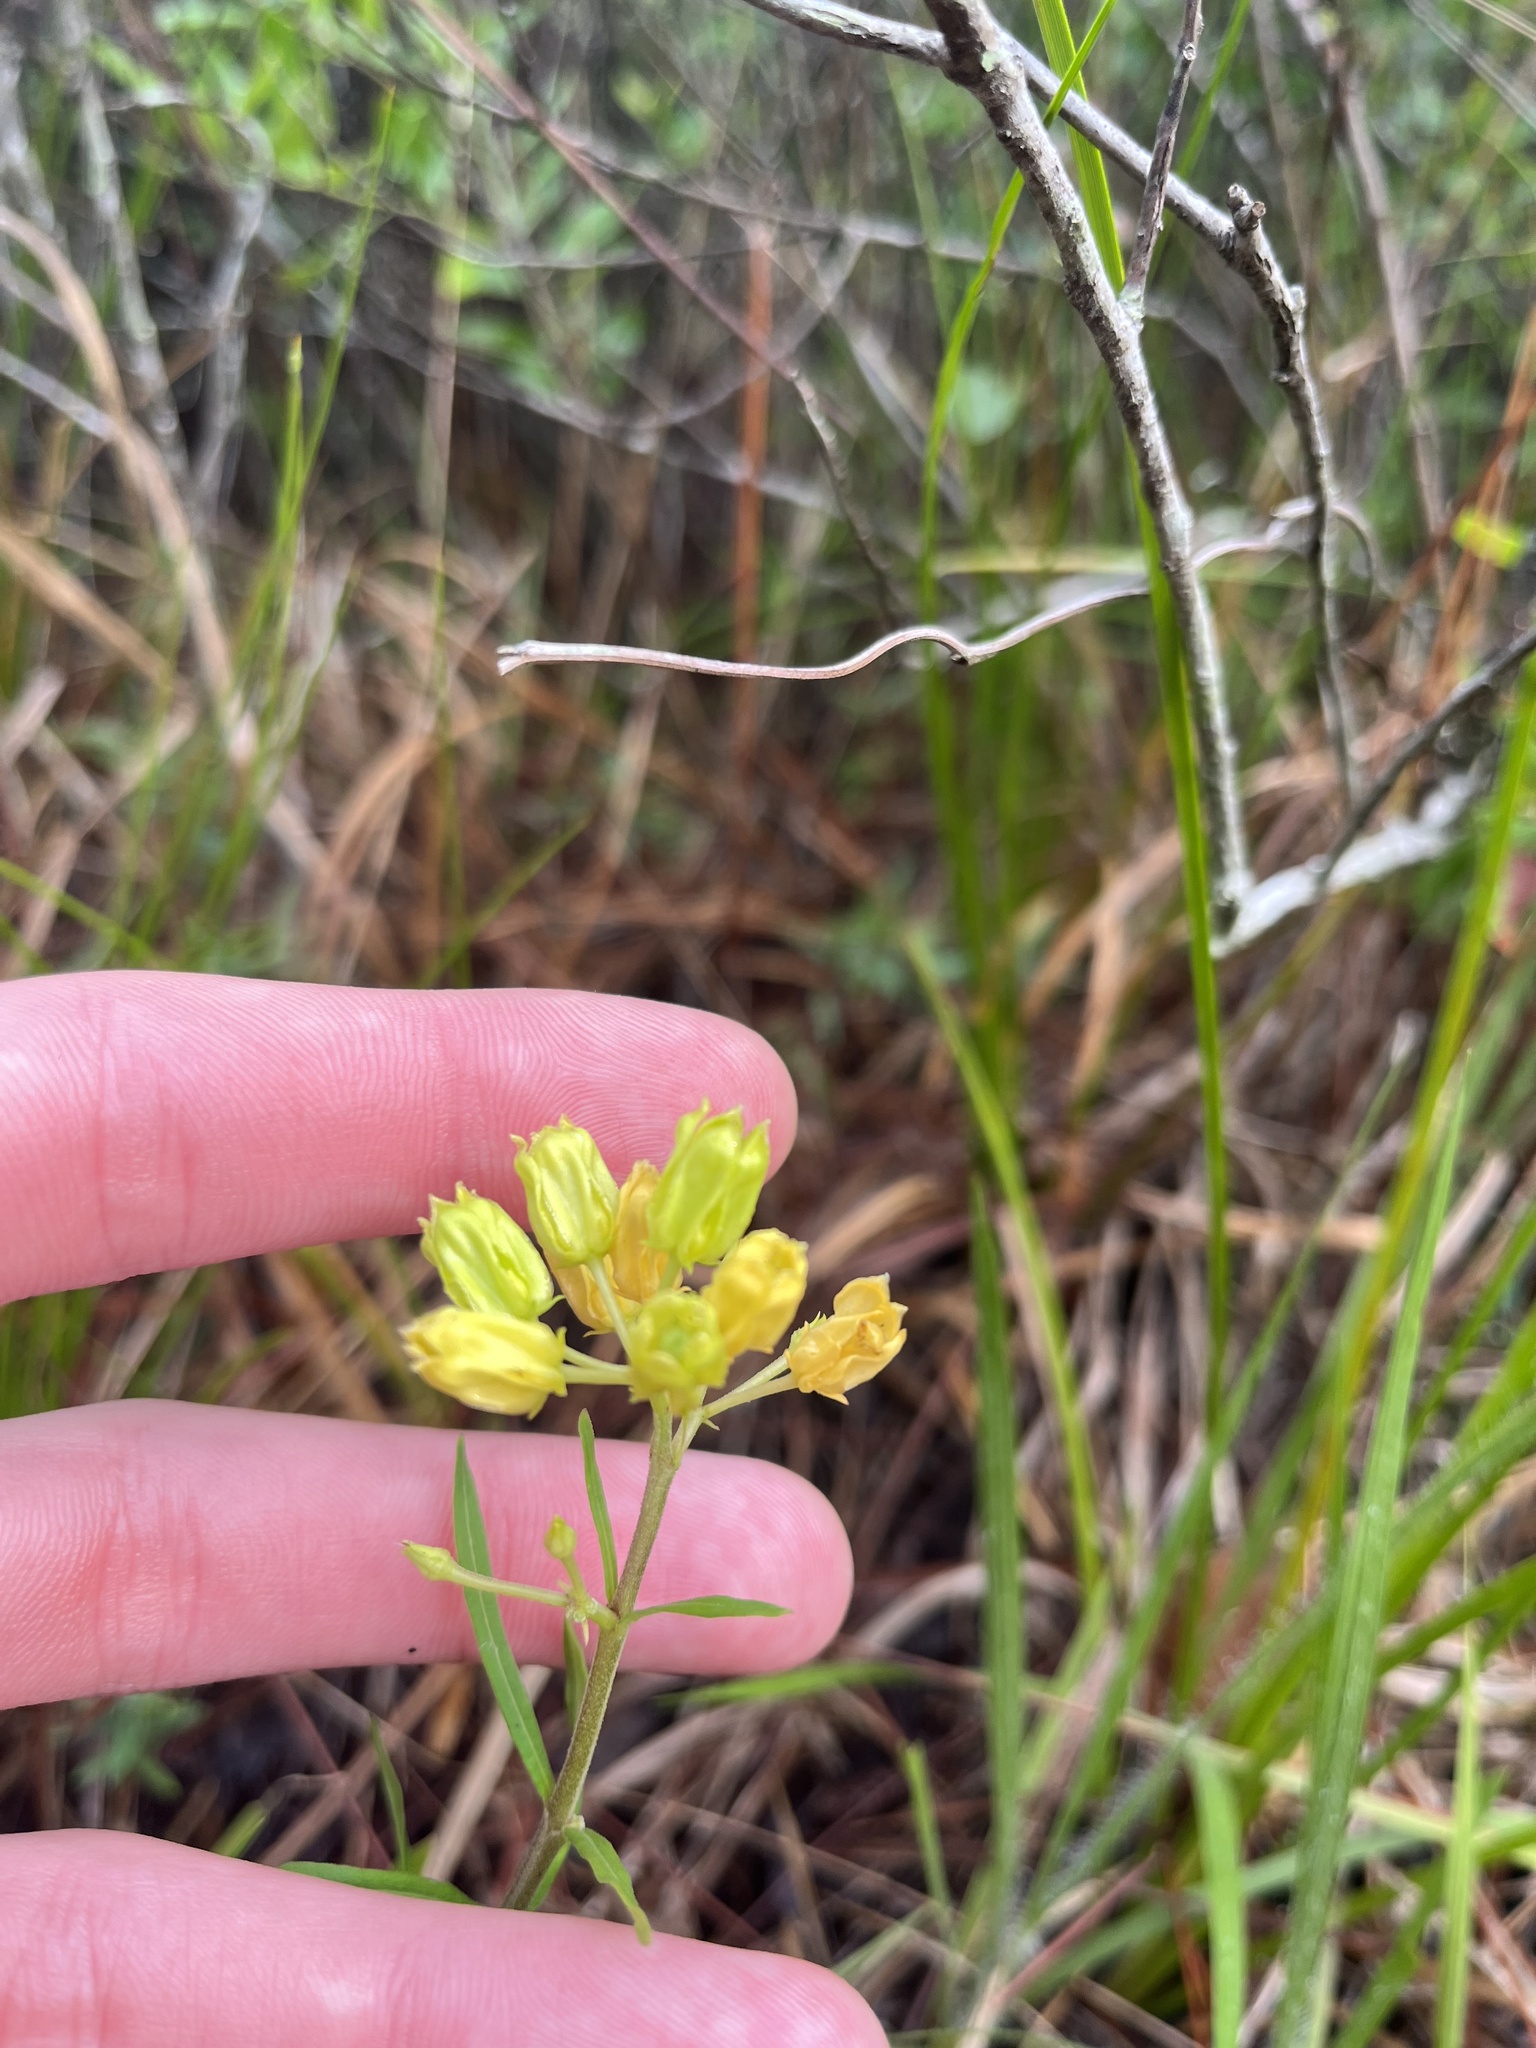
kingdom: Plantae
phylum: Tracheophyta
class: Magnoliopsida
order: Gentianales
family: Apocynaceae
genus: Asclepias
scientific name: Asclepias pedicellata
